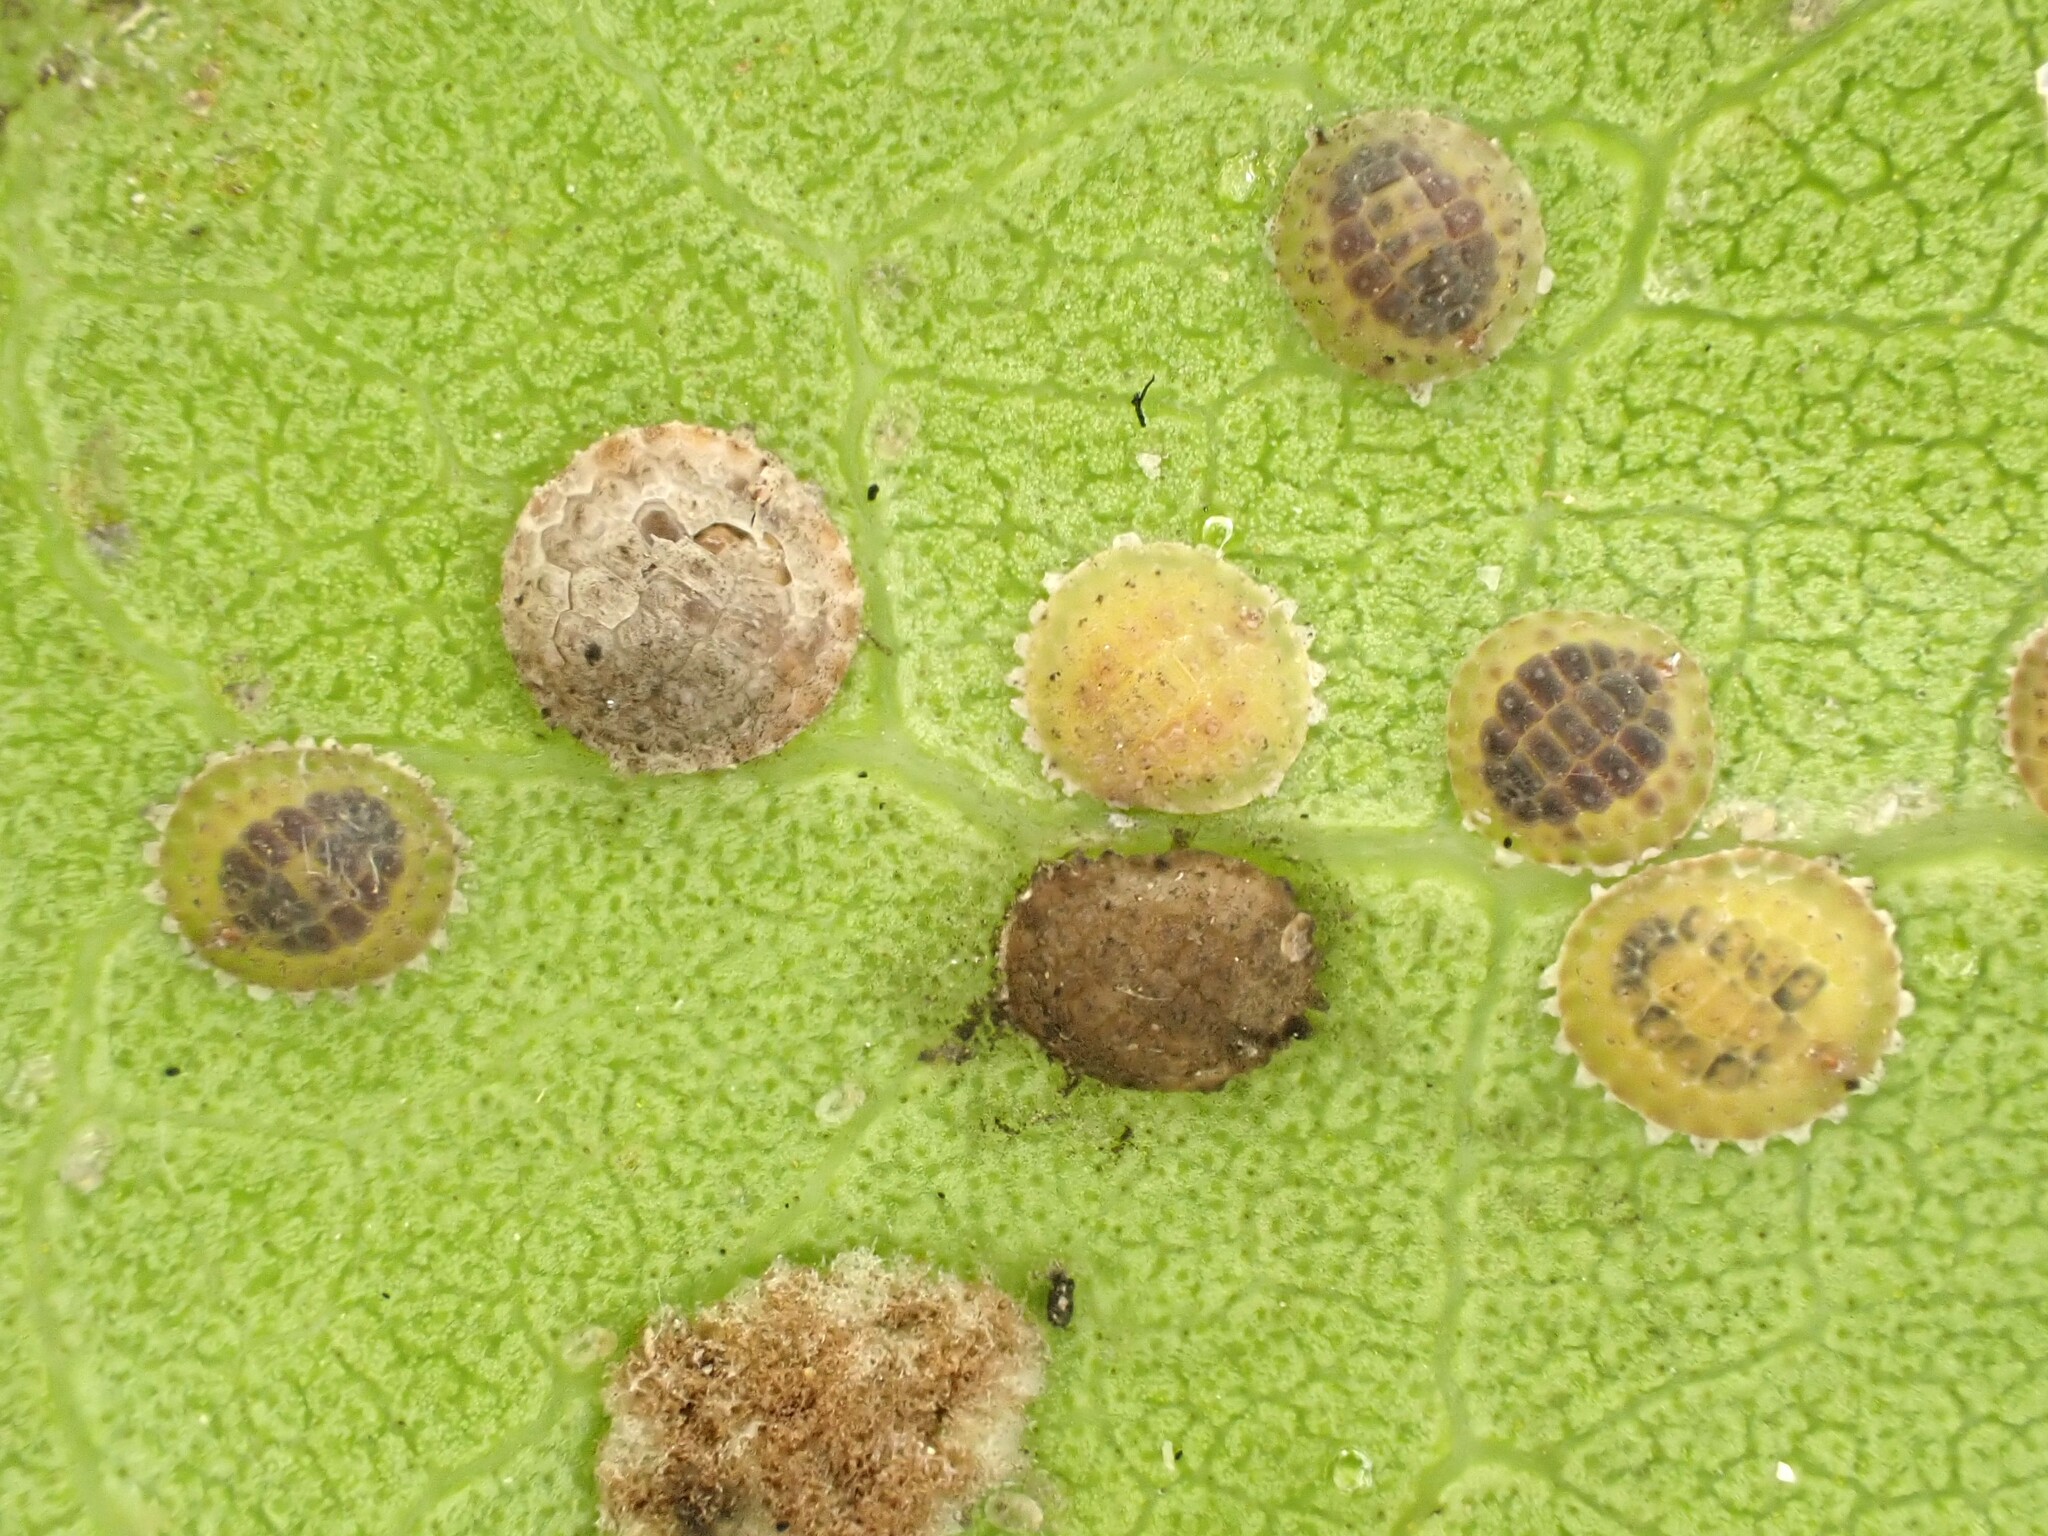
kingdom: Animalia
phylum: Arthropoda
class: Insecta
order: Hemiptera
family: Coccidae
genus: Epelidochiton
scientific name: Epelidochiton piperis
